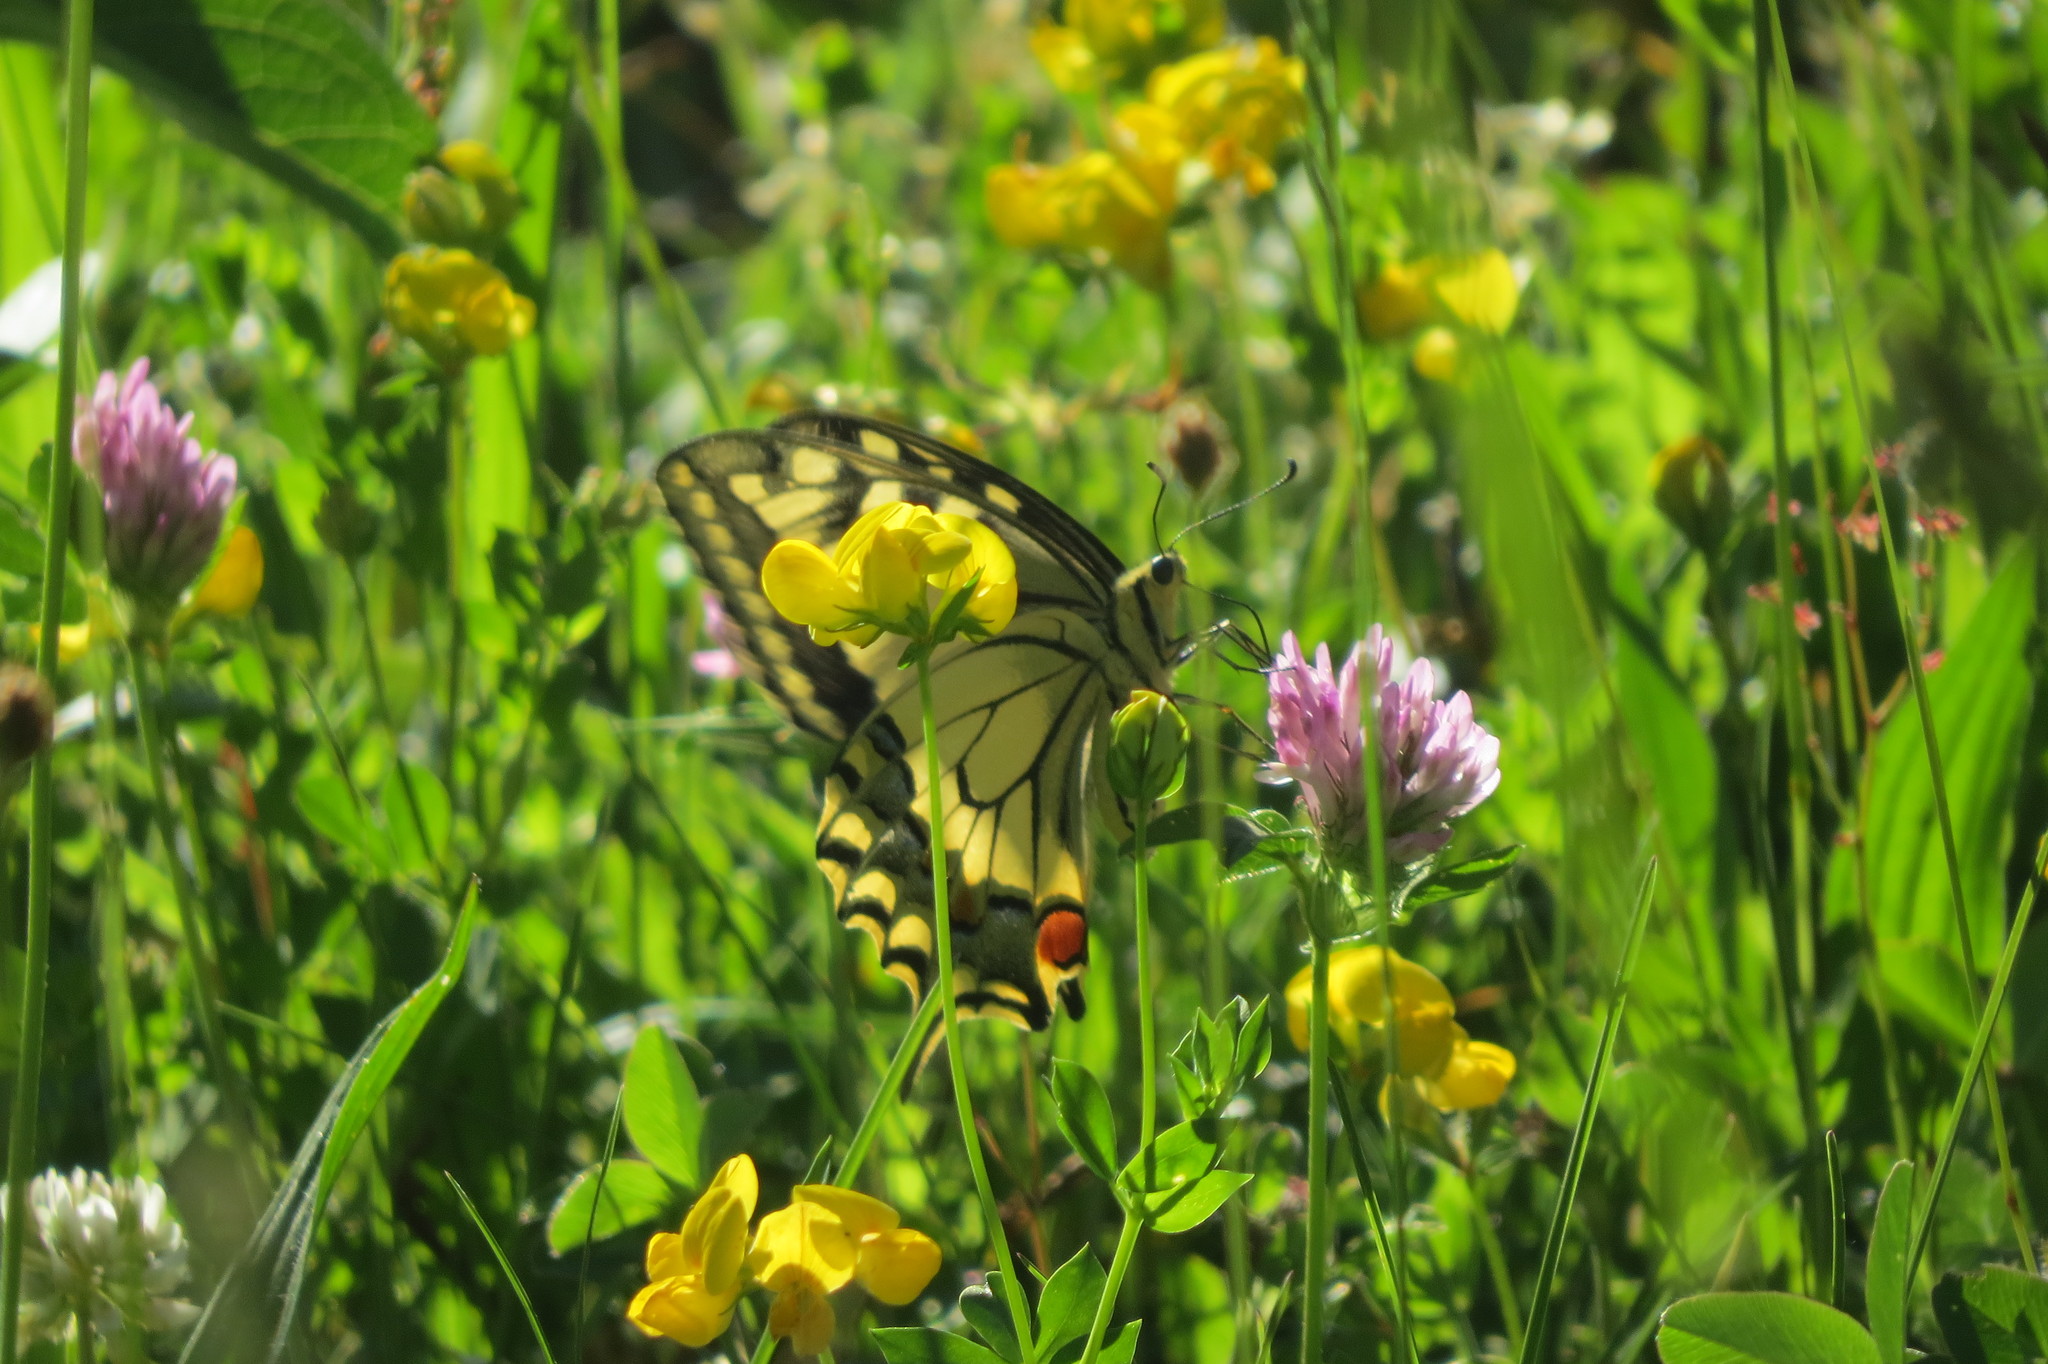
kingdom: Animalia
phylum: Arthropoda
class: Insecta
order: Lepidoptera
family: Papilionidae
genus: Papilio
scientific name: Papilio machaon
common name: Swallowtail
